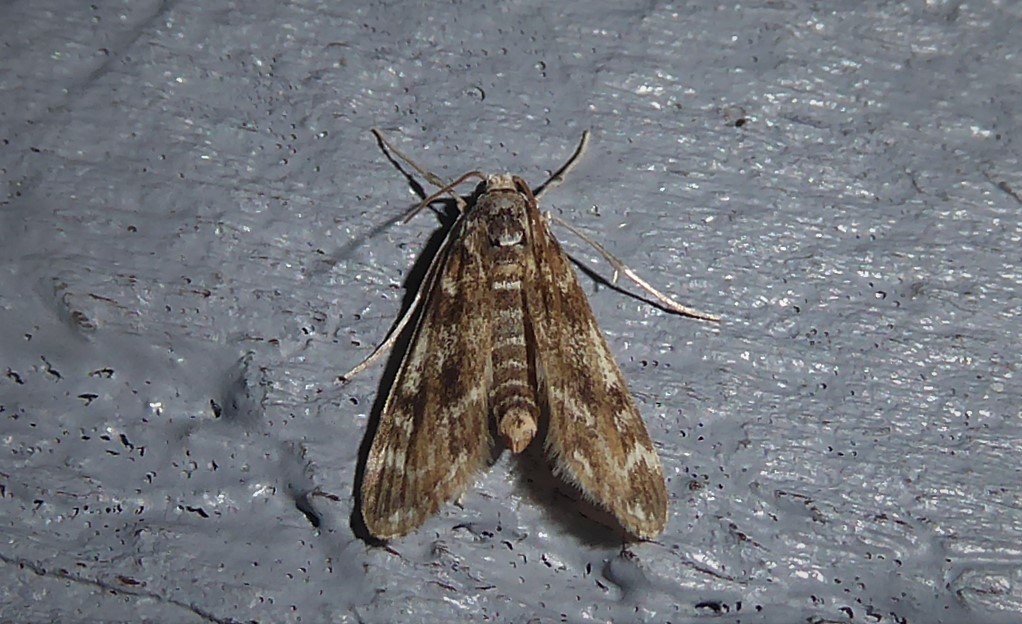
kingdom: Animalia
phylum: Arthropoda
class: Insecta
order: Lepidoptera
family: Crambidae
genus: Hygraula
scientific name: Hygraula nitens
